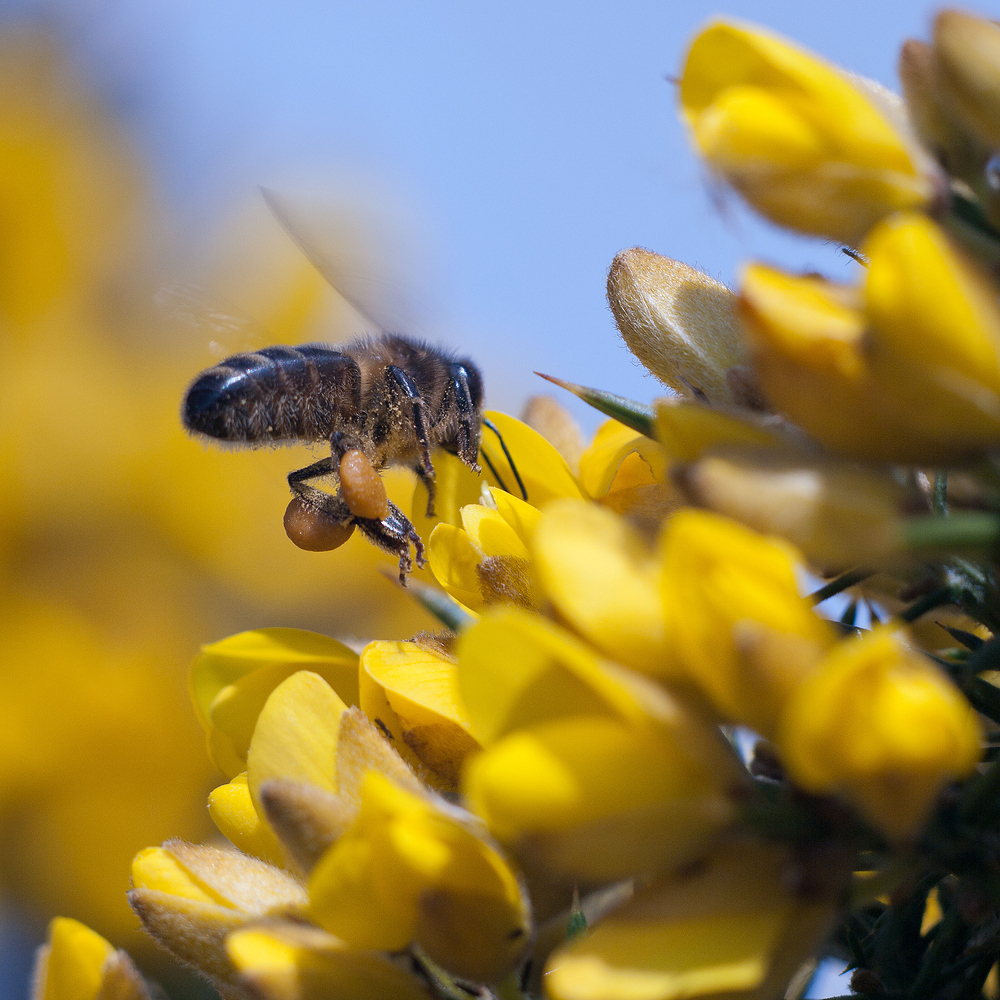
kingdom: Animalia
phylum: Arthropoda
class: Insecta
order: Hymenoptera
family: Apidae
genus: Apis
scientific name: Apis mellifera
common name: Honey bee
